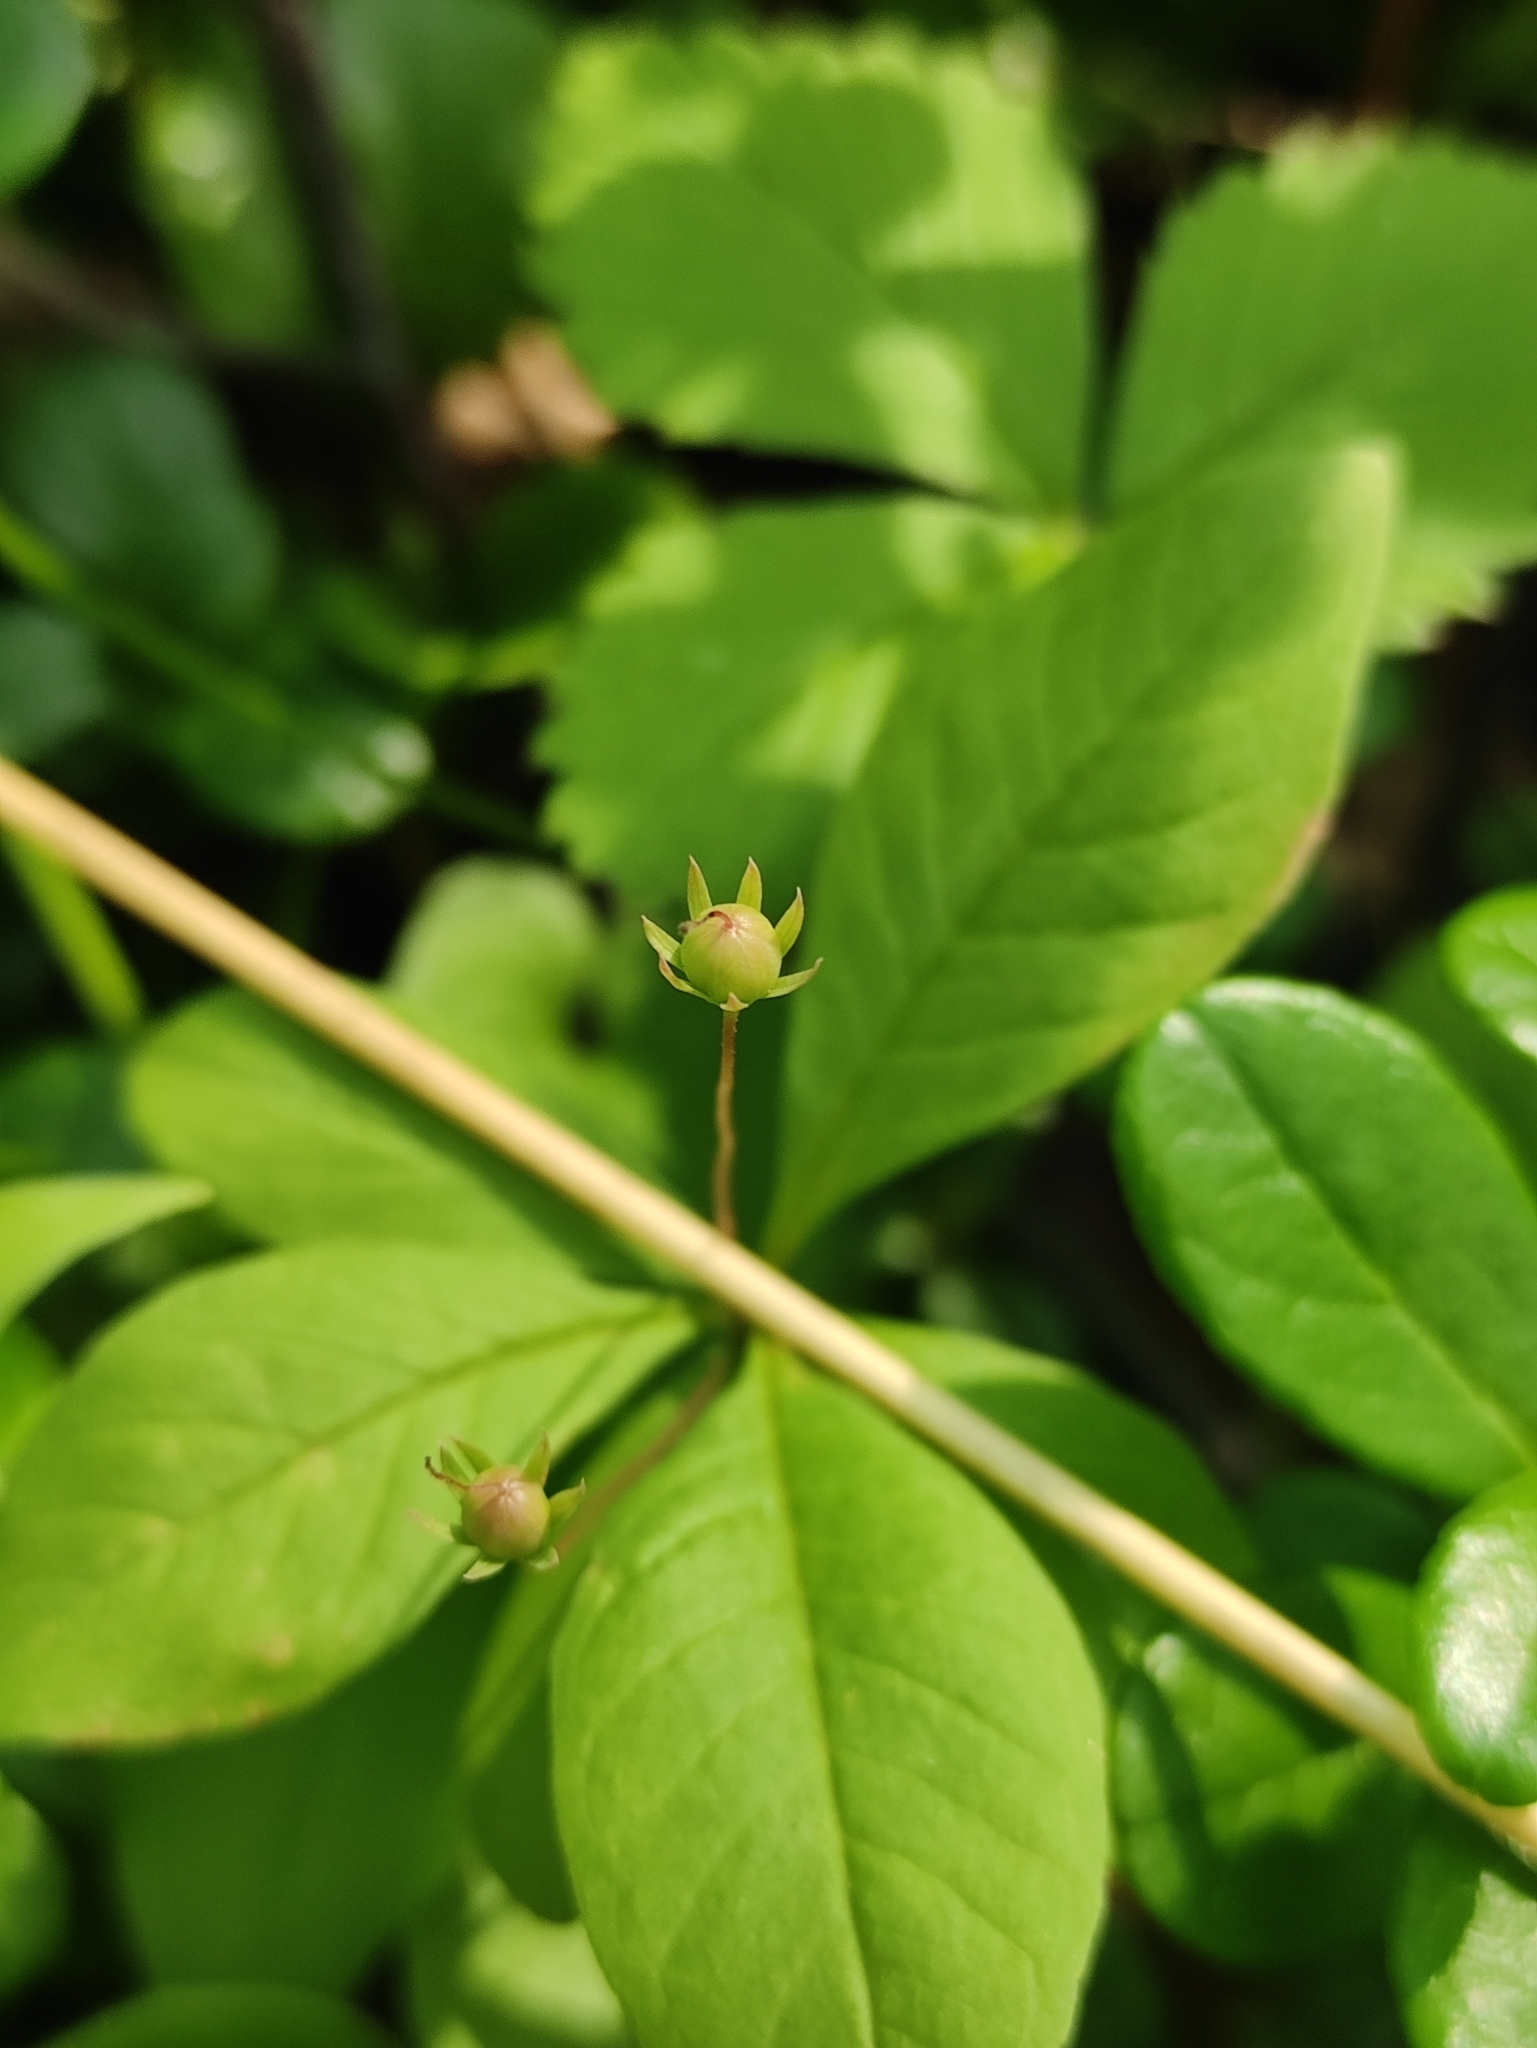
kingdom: Plantae
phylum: Tracheophyta
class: Magnoliopsida
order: Ericales
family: Primulaceae
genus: Lysimachia
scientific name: Lysimachia europaea
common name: Arctic starflower
